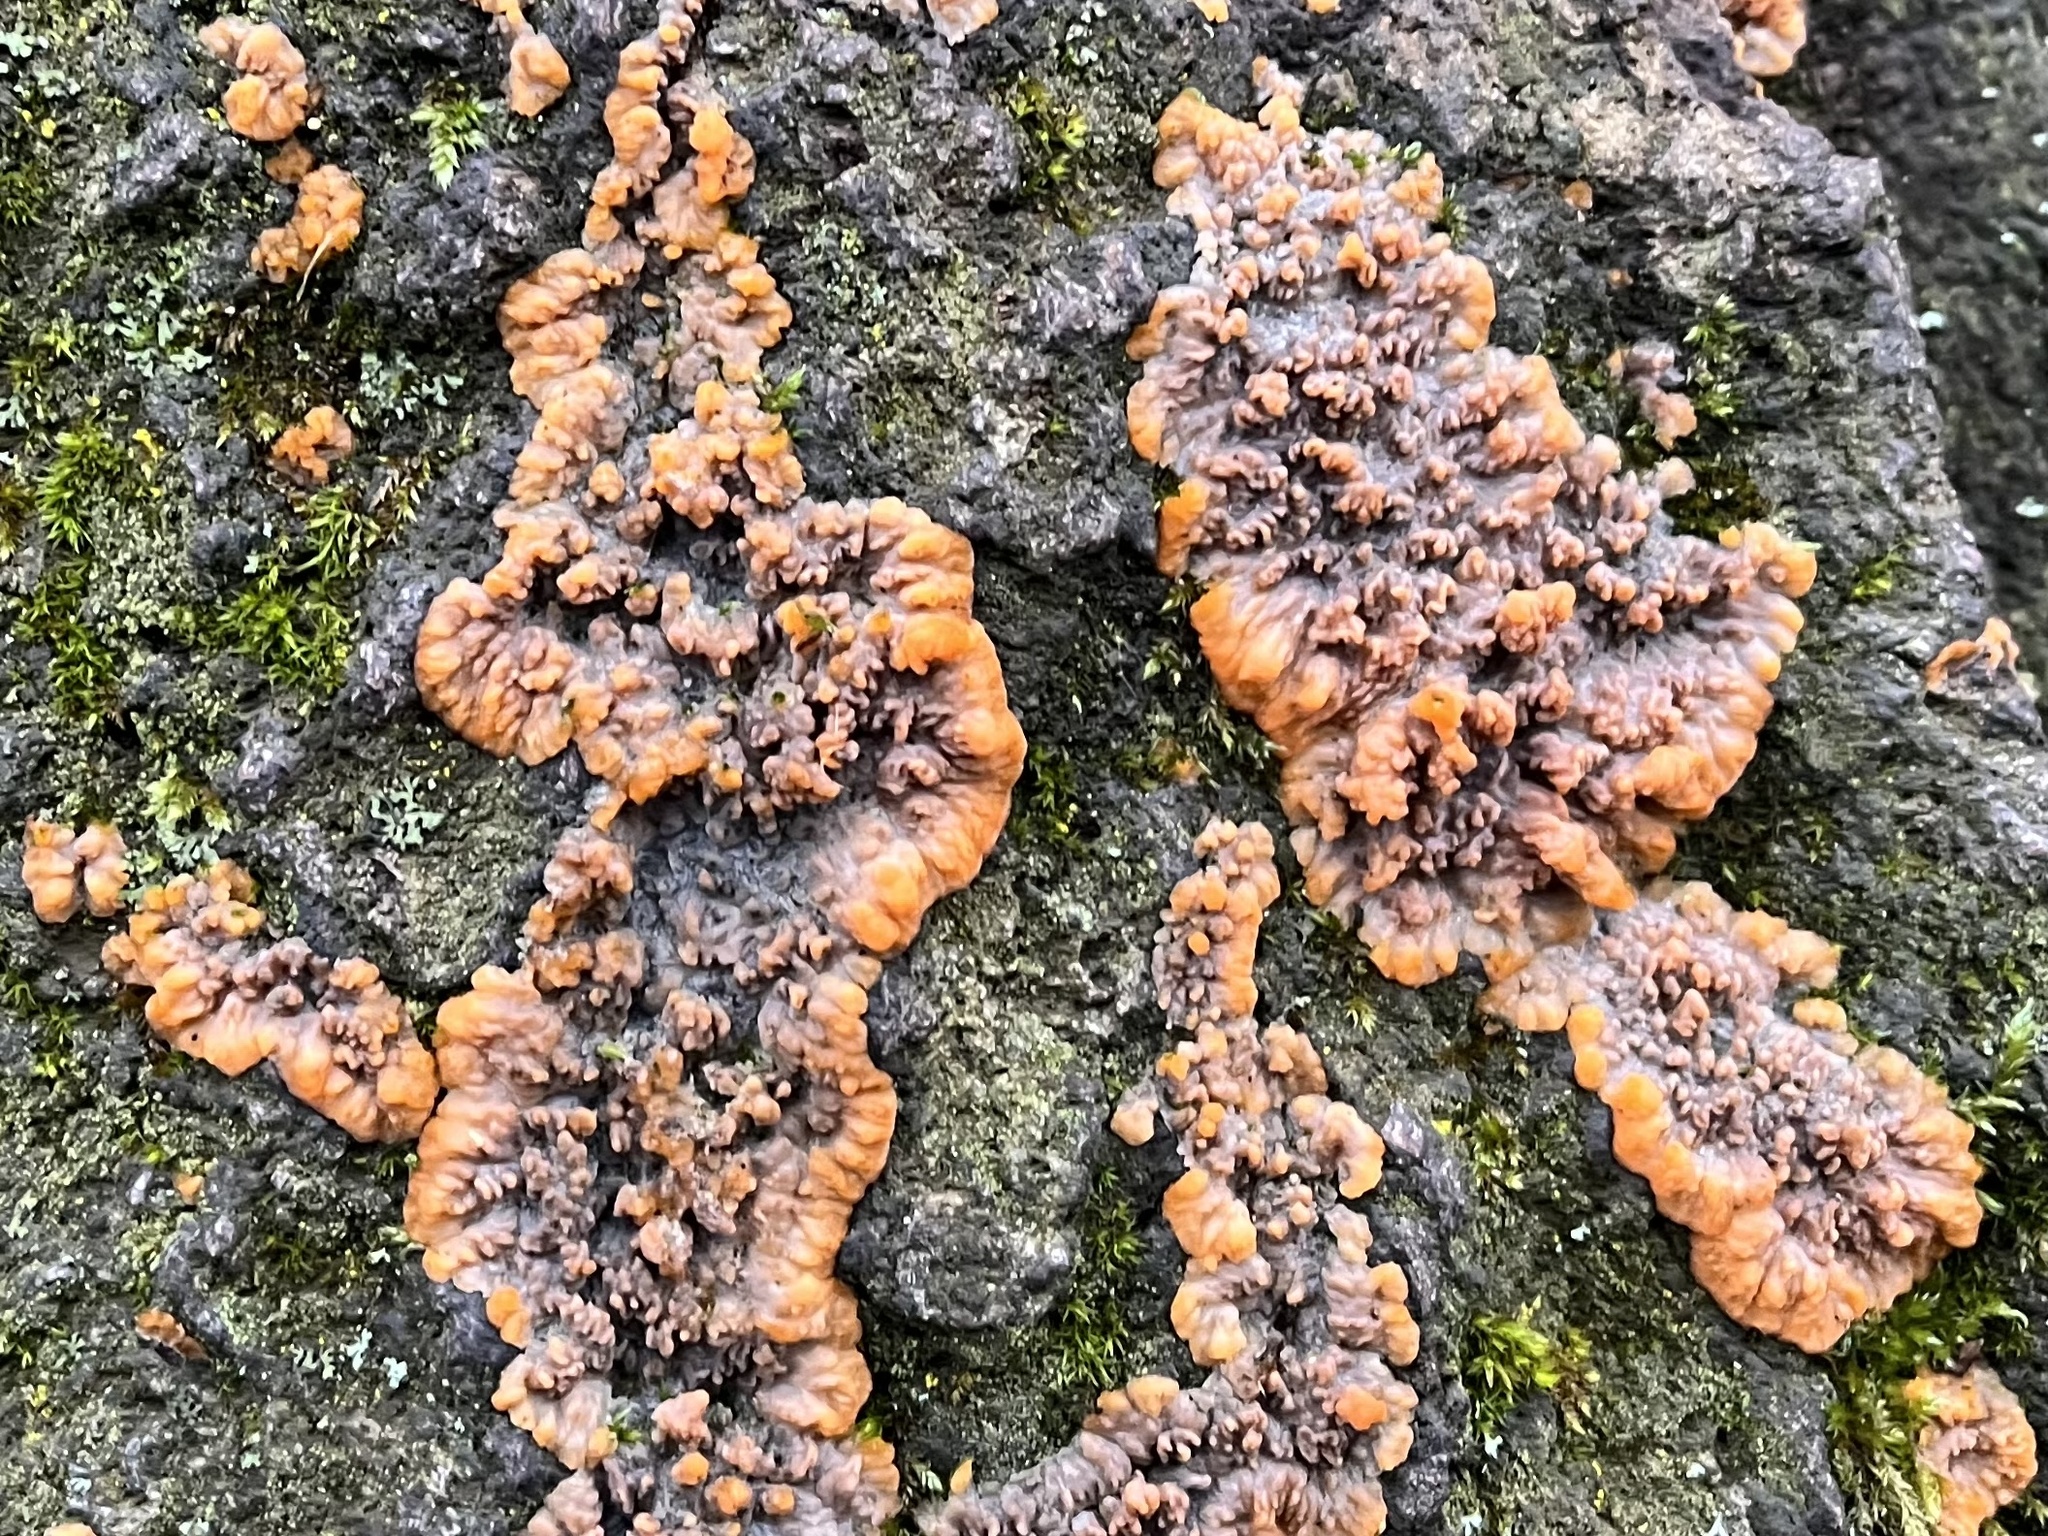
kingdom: Fungi
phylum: Basidiomycota
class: Agaricomycetes
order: Polyporales
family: Meruliaceae
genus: Phlebia
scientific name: Phlebia radiata
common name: Wrinkled crust
